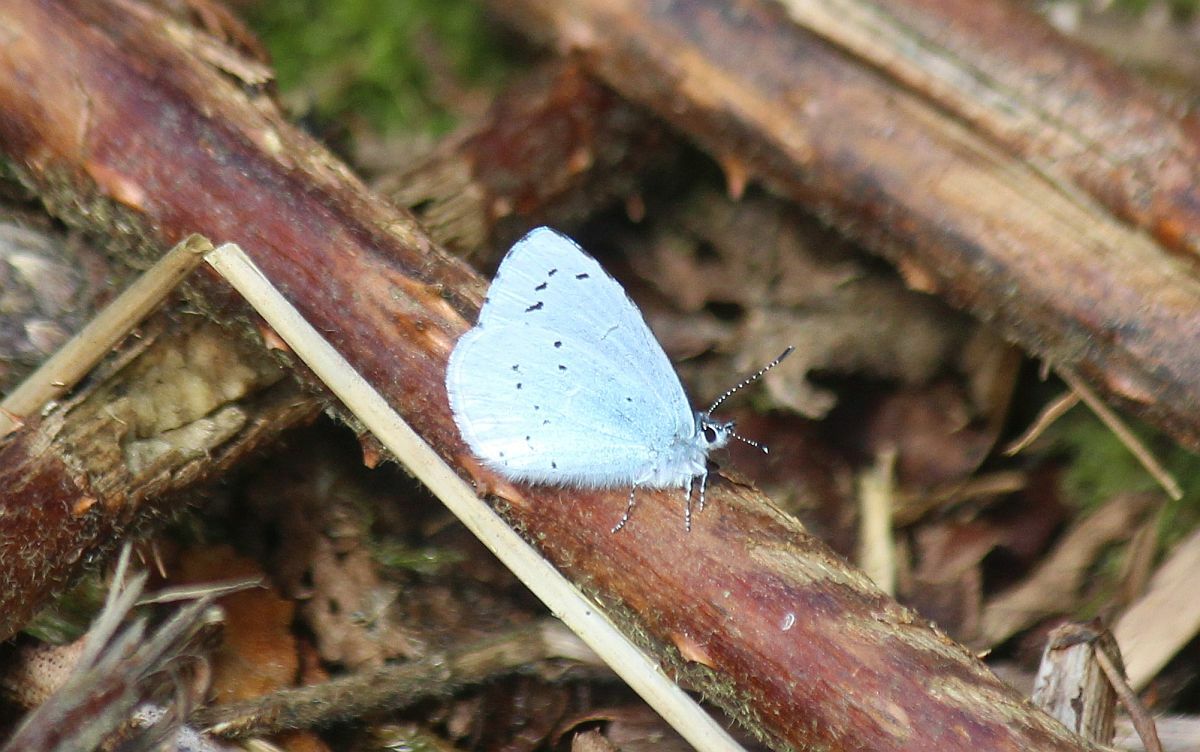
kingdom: Animalia
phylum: Arthropoda
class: Insecta
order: Lepidoptera
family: Lycaenidae
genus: Celastrina
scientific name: Celastrina argiolus
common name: Holly blue
